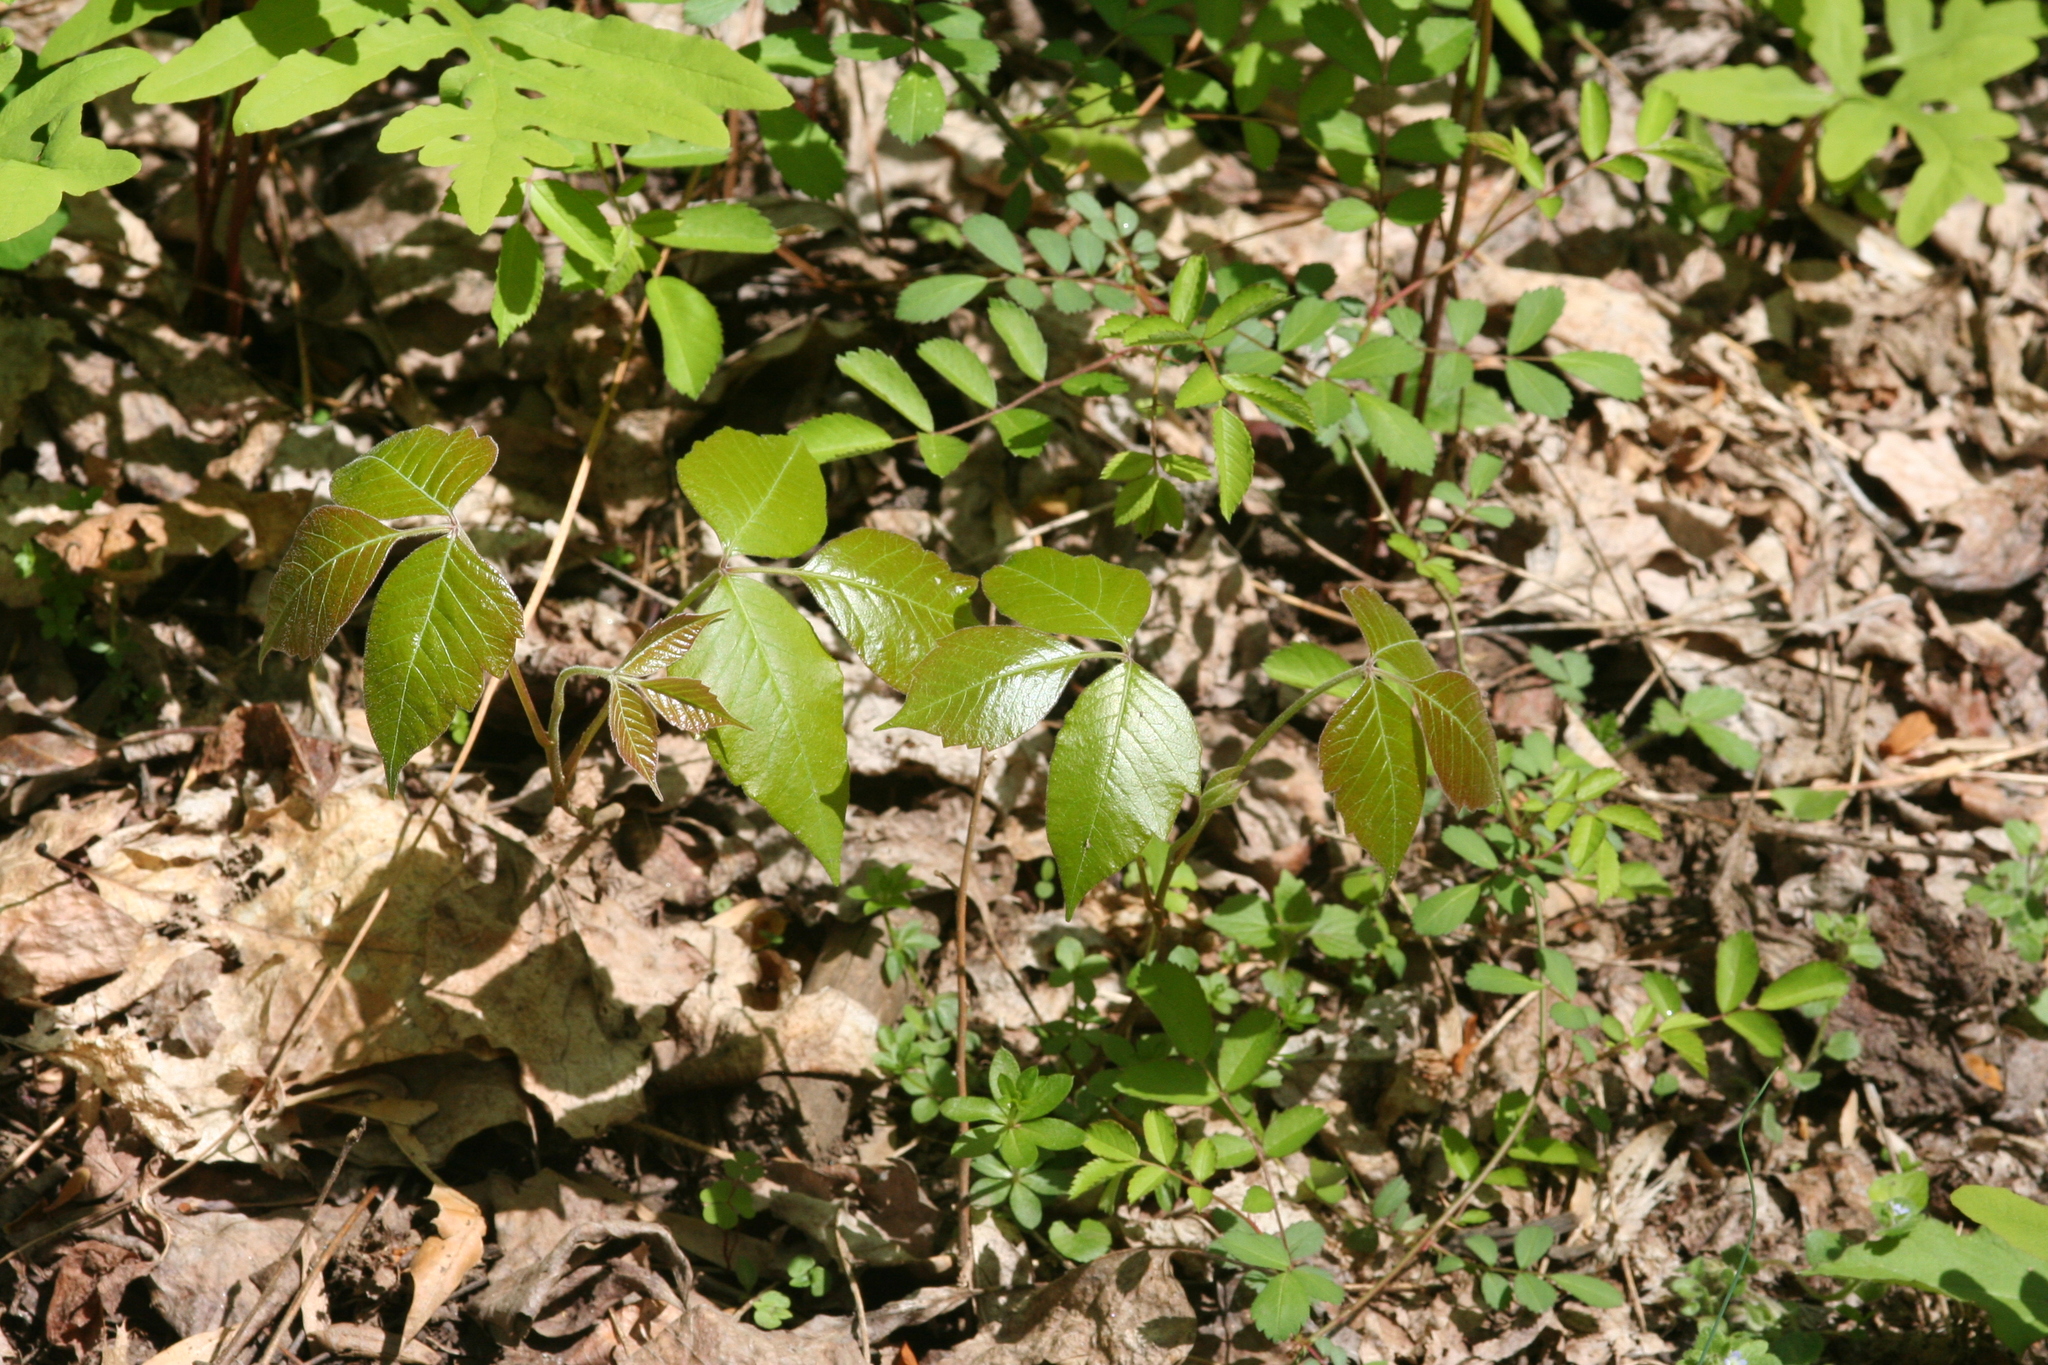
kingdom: Plantae
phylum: Tracheophyta
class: Magnoliopsida
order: Sapindales
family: Anacardiaceae
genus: Toxicodendron
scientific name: Toxicodendron radicans
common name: Poison ivy
